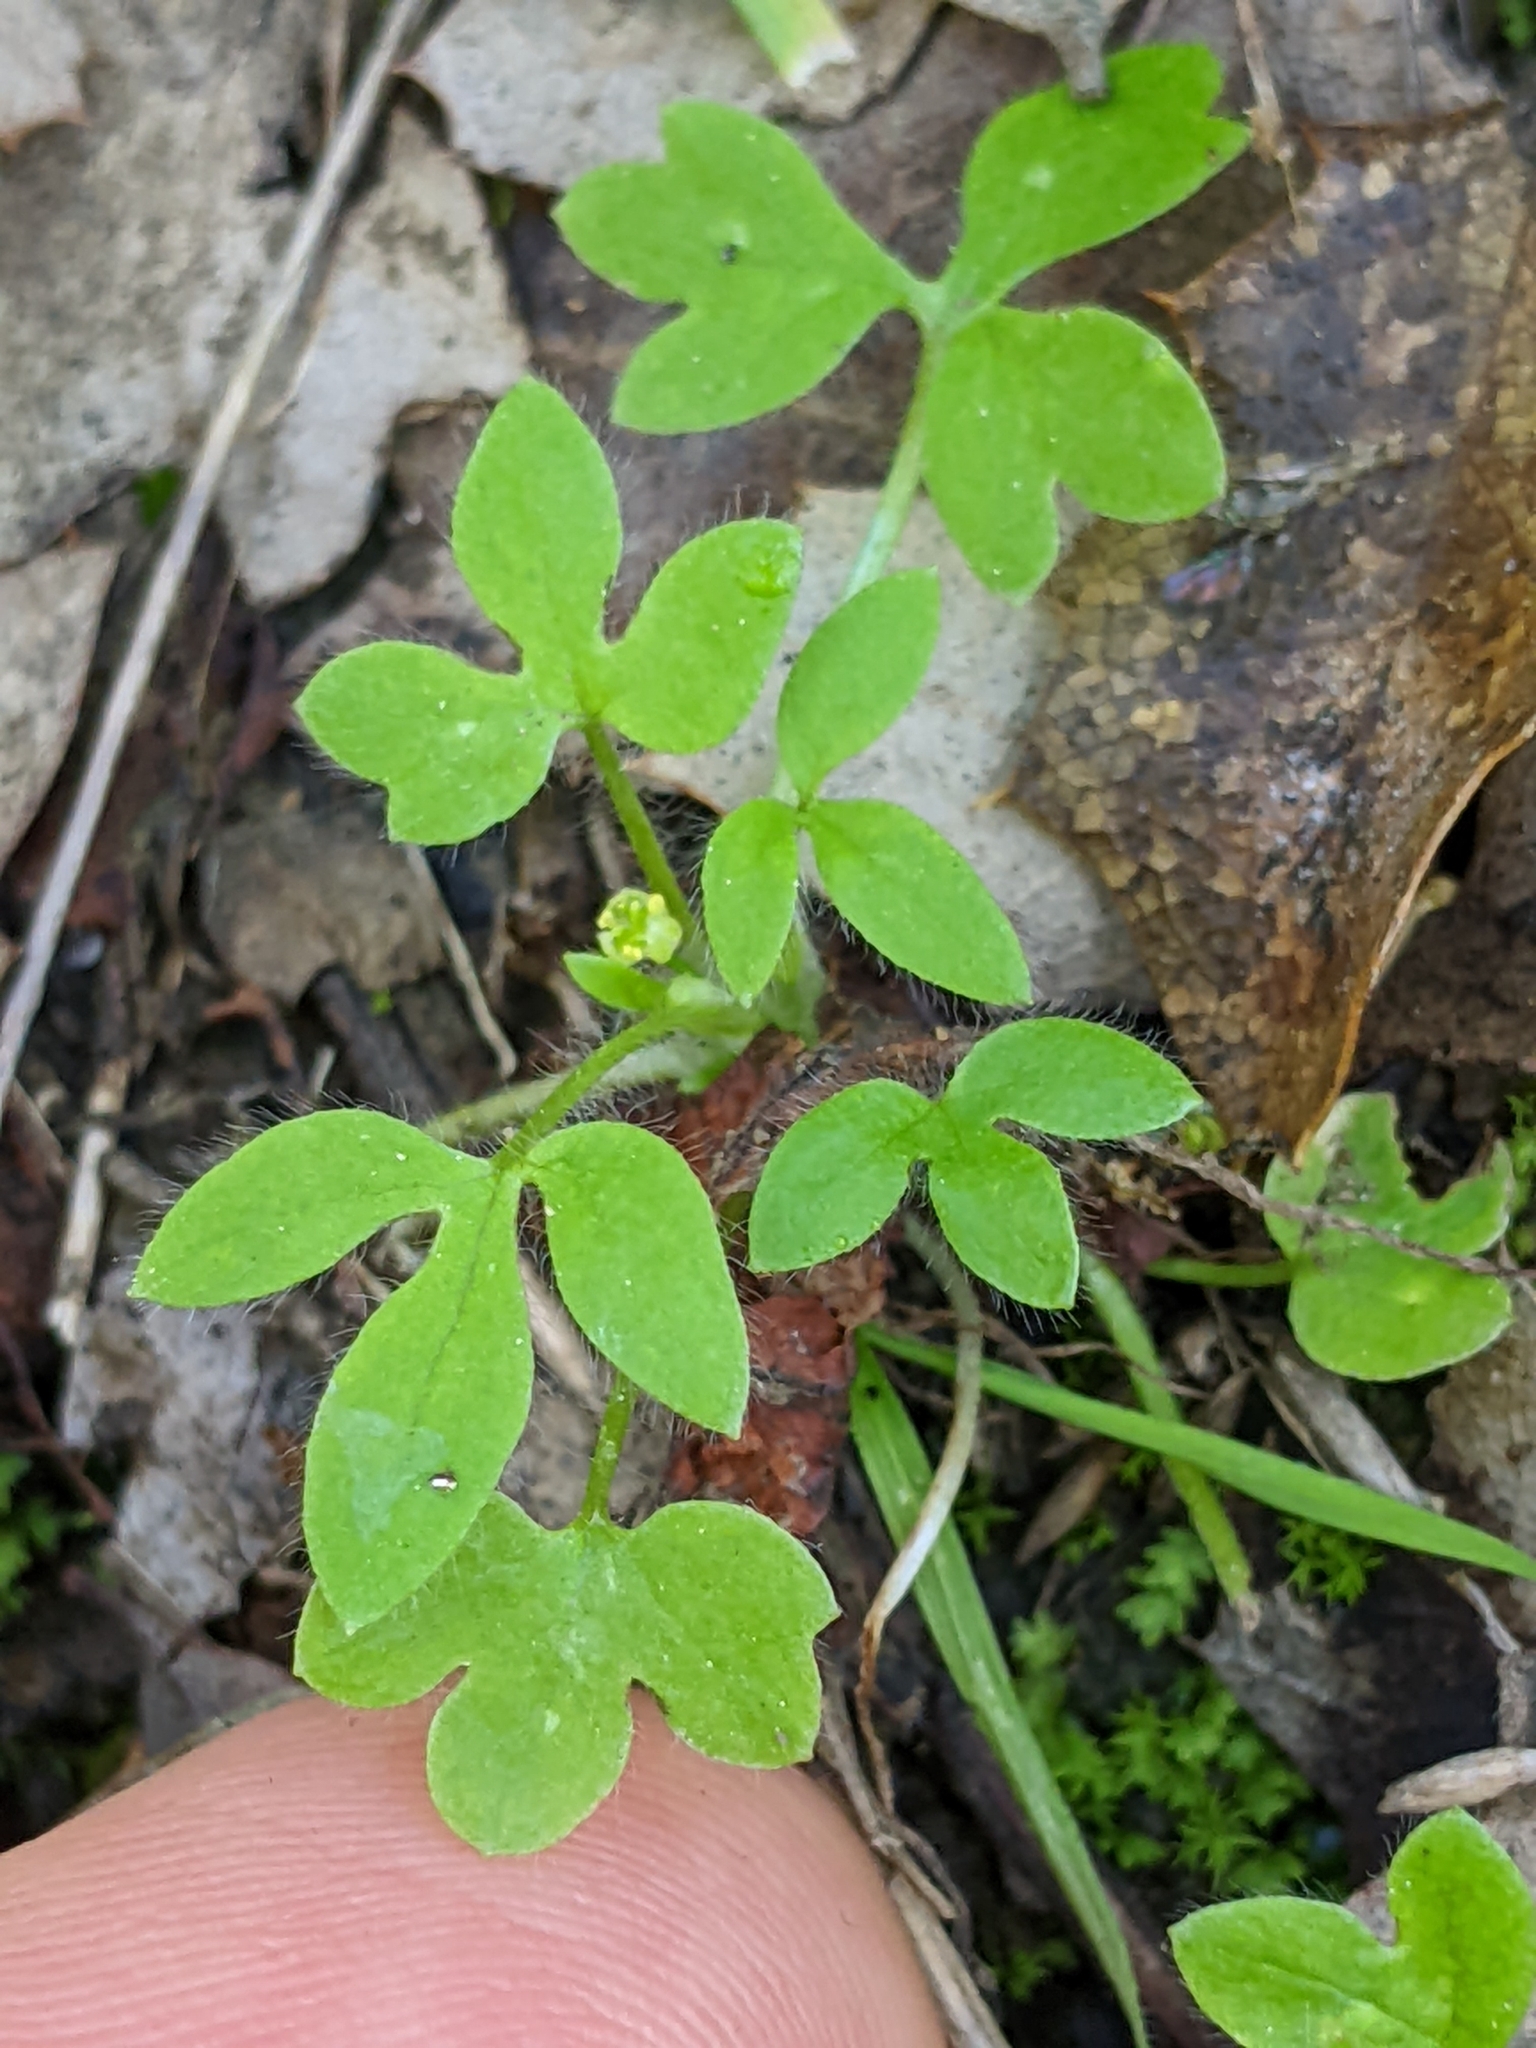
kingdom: Plantae
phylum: Tracheophyta
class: Magnoliopsida
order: Ranunculales
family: Ranunculaceae
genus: Ranunculus
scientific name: Ranunculus hebecarpus
